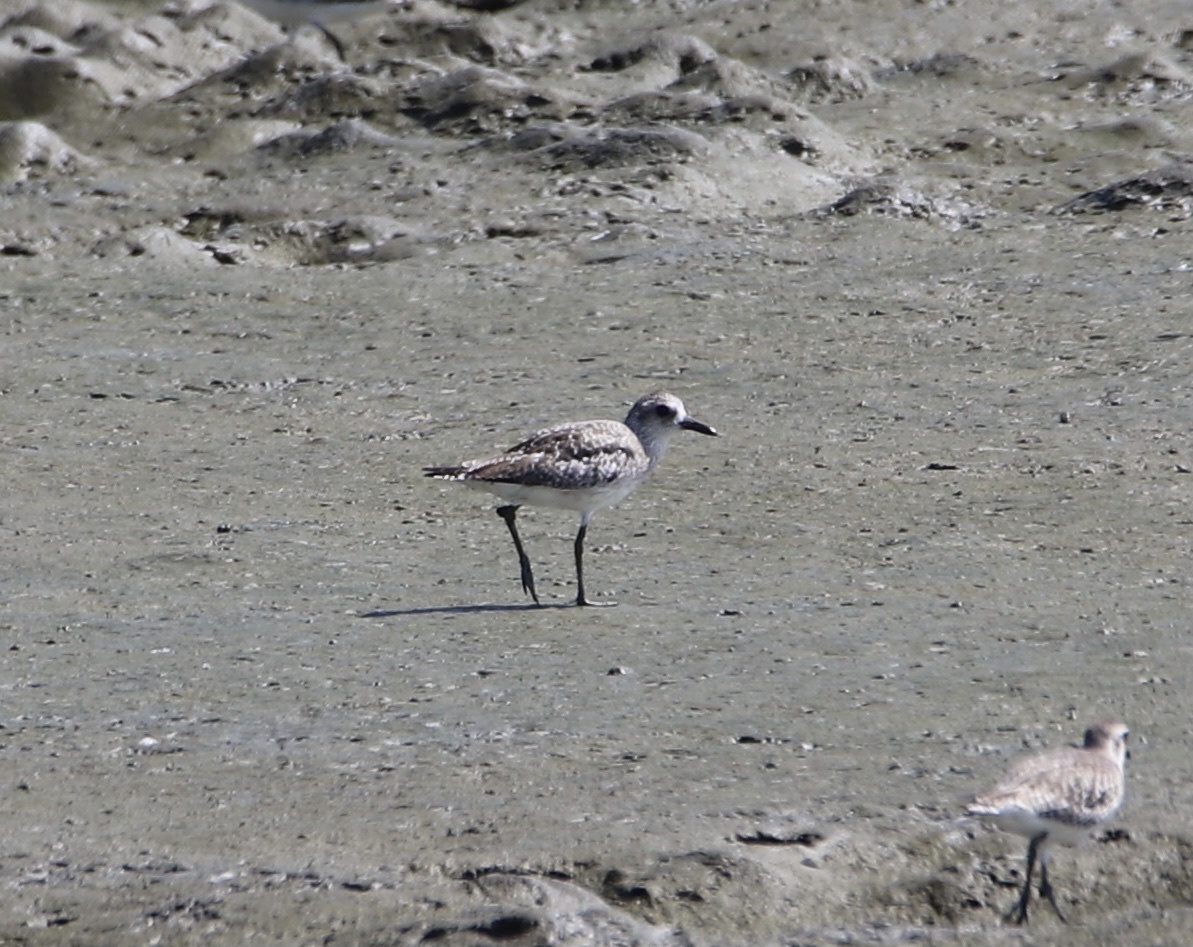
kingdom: Animalia
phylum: Chordata
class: Aves
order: Charadriiformes
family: Charadriidae
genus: Pluvialis
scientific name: Pluvialis squatarola
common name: Grey plover
